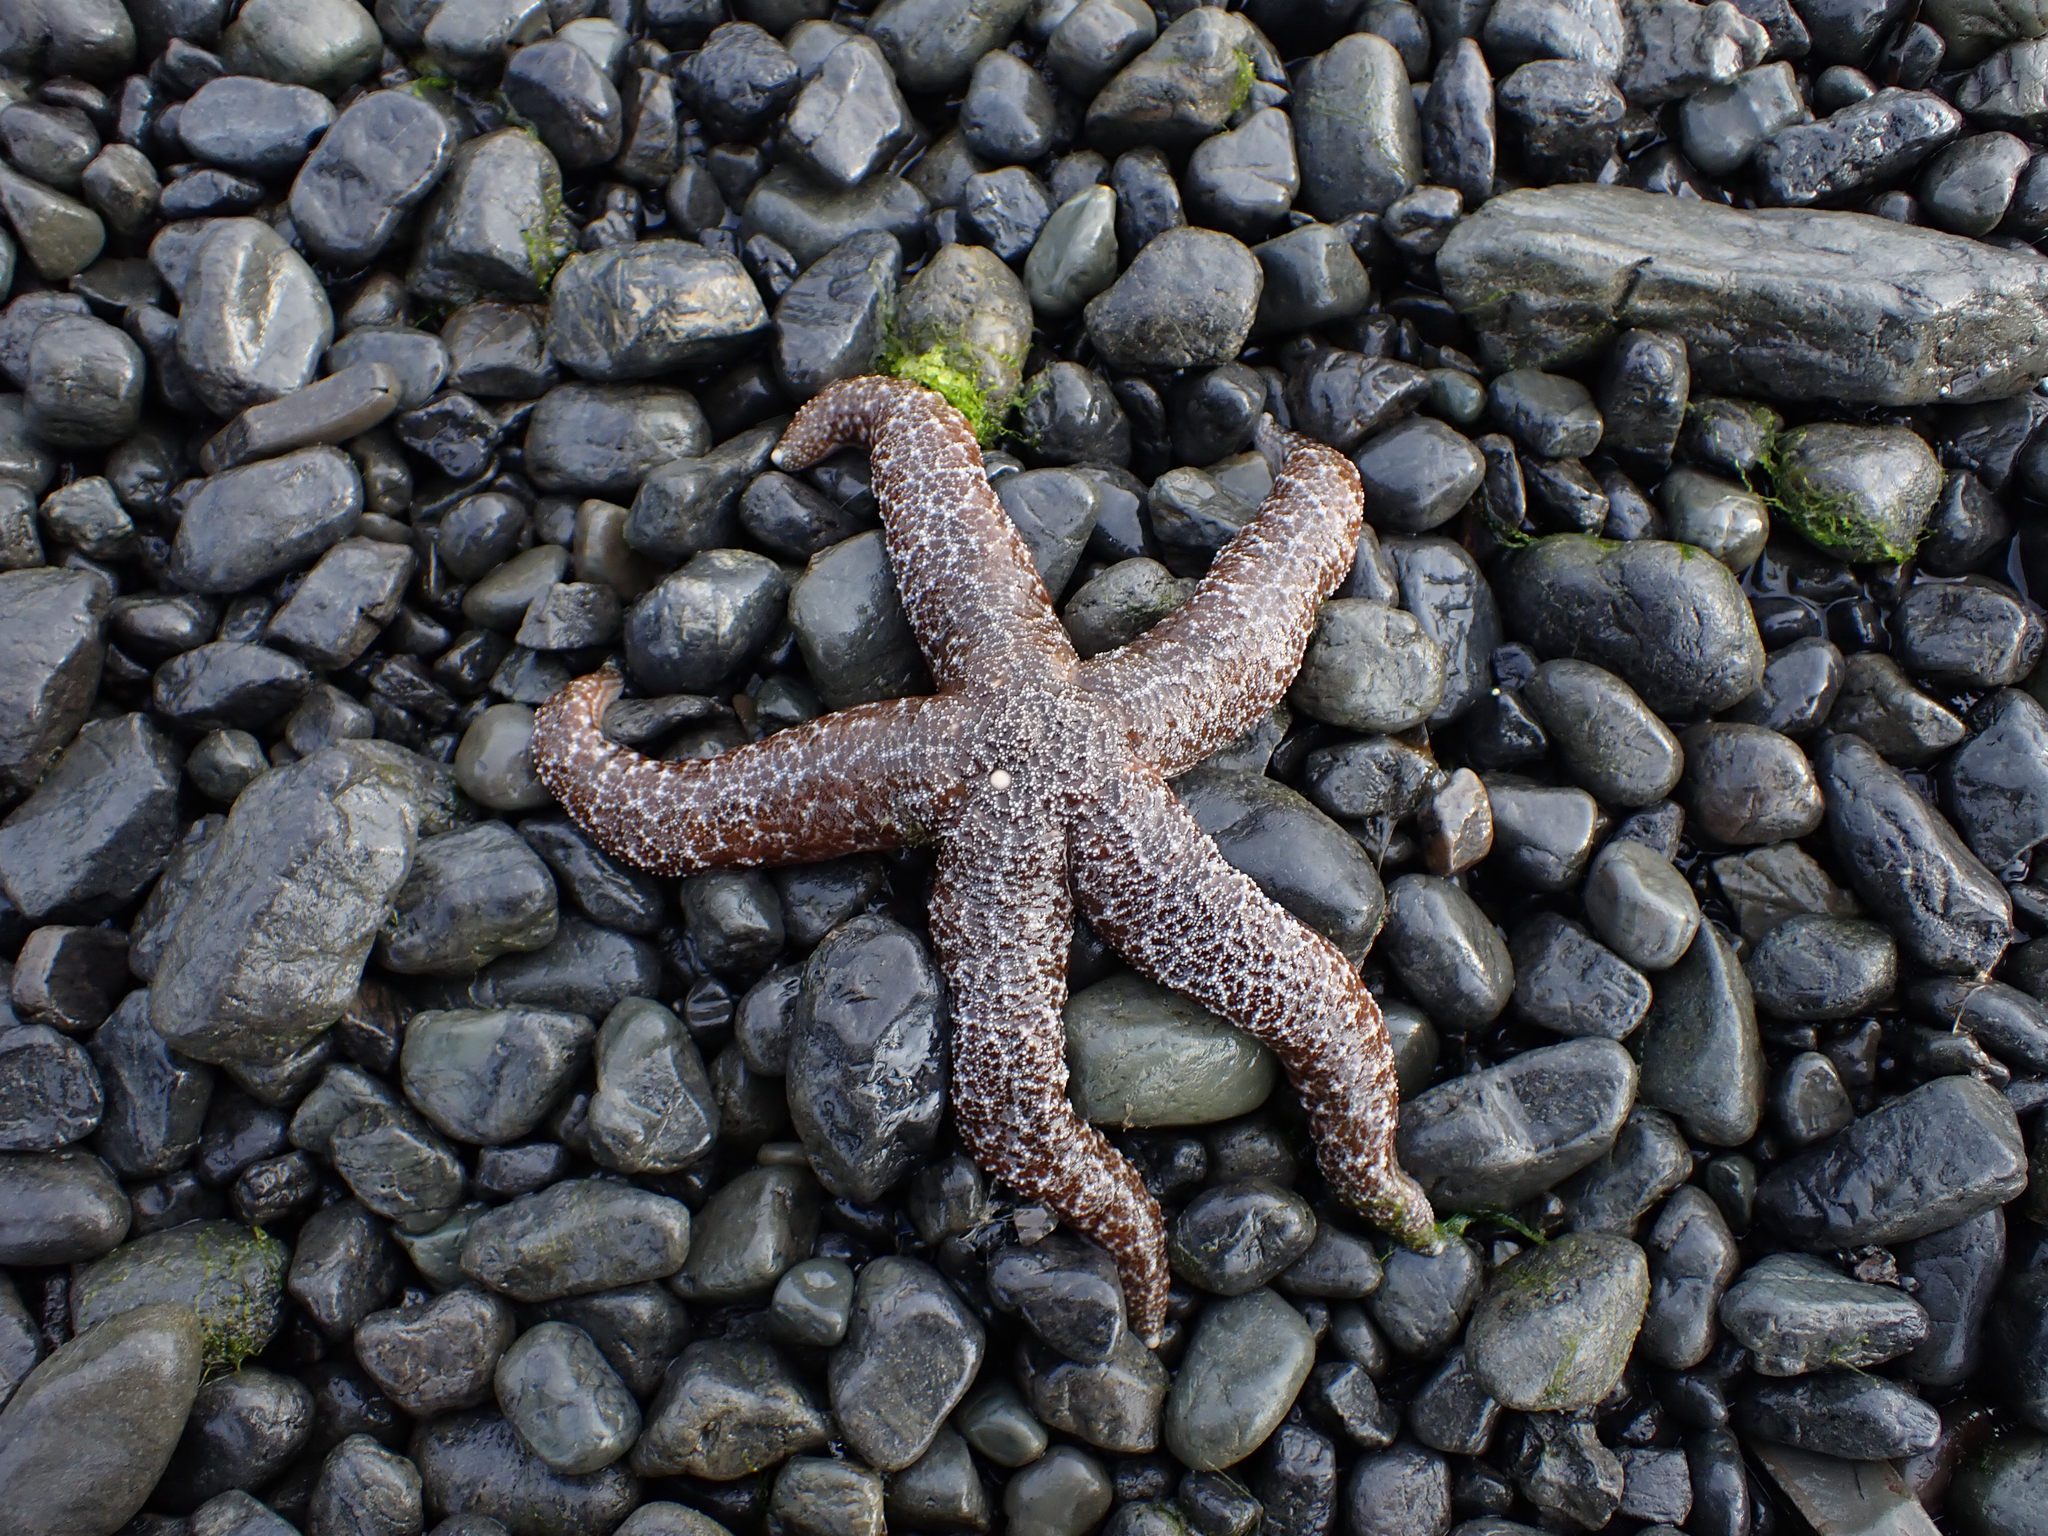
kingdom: Animalia
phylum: Echinodermata
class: Asteroidea
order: Forcipulatida
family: Asteriidae
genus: Evasterias
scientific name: Evasterias troschelii
